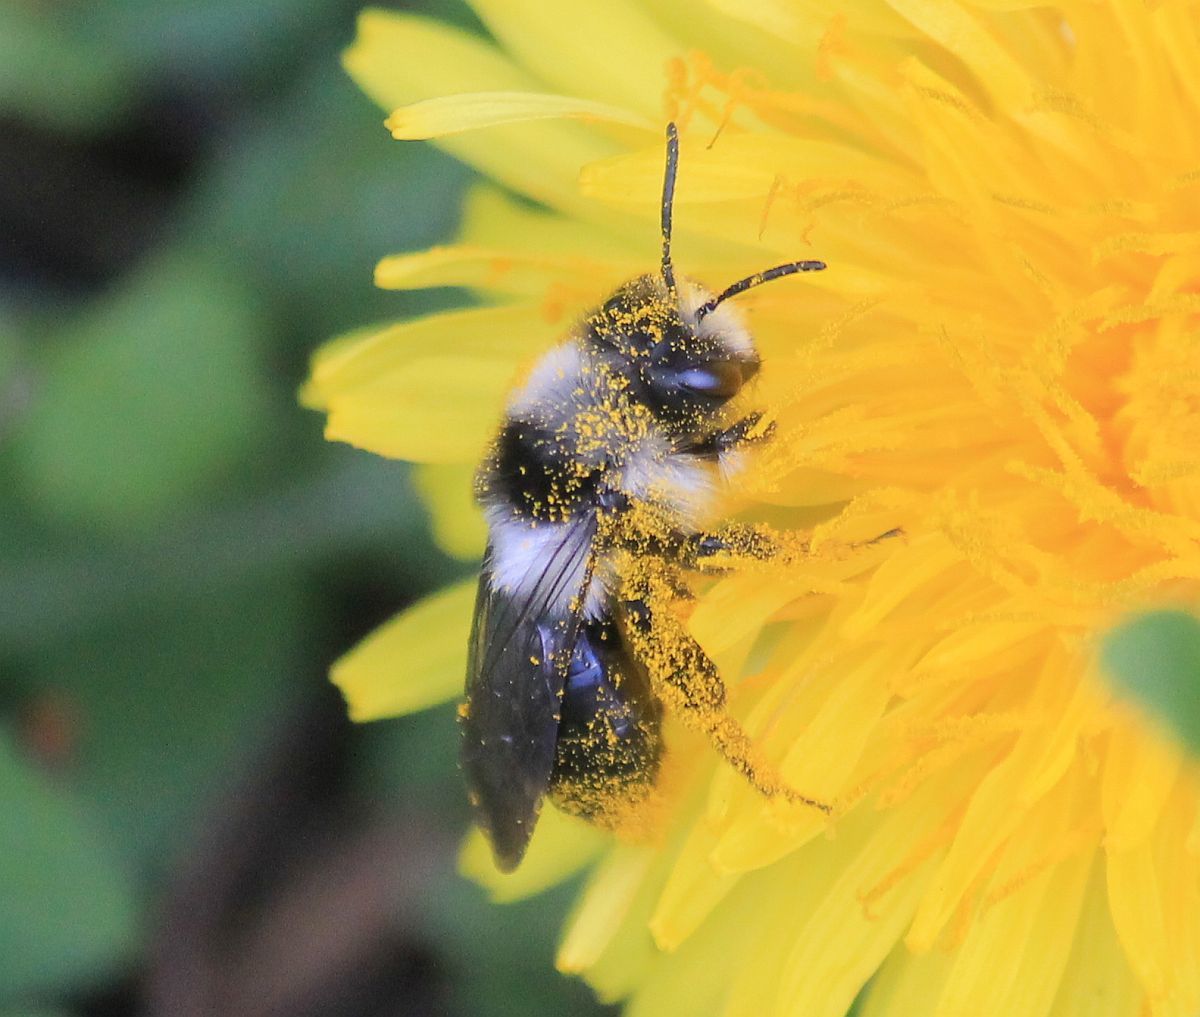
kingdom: Animalia
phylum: Arthropoda
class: Insecta
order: Hymenoptera
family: Andrenidae
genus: Andrena
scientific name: Andrena cineraria
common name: Ashy mining bee
